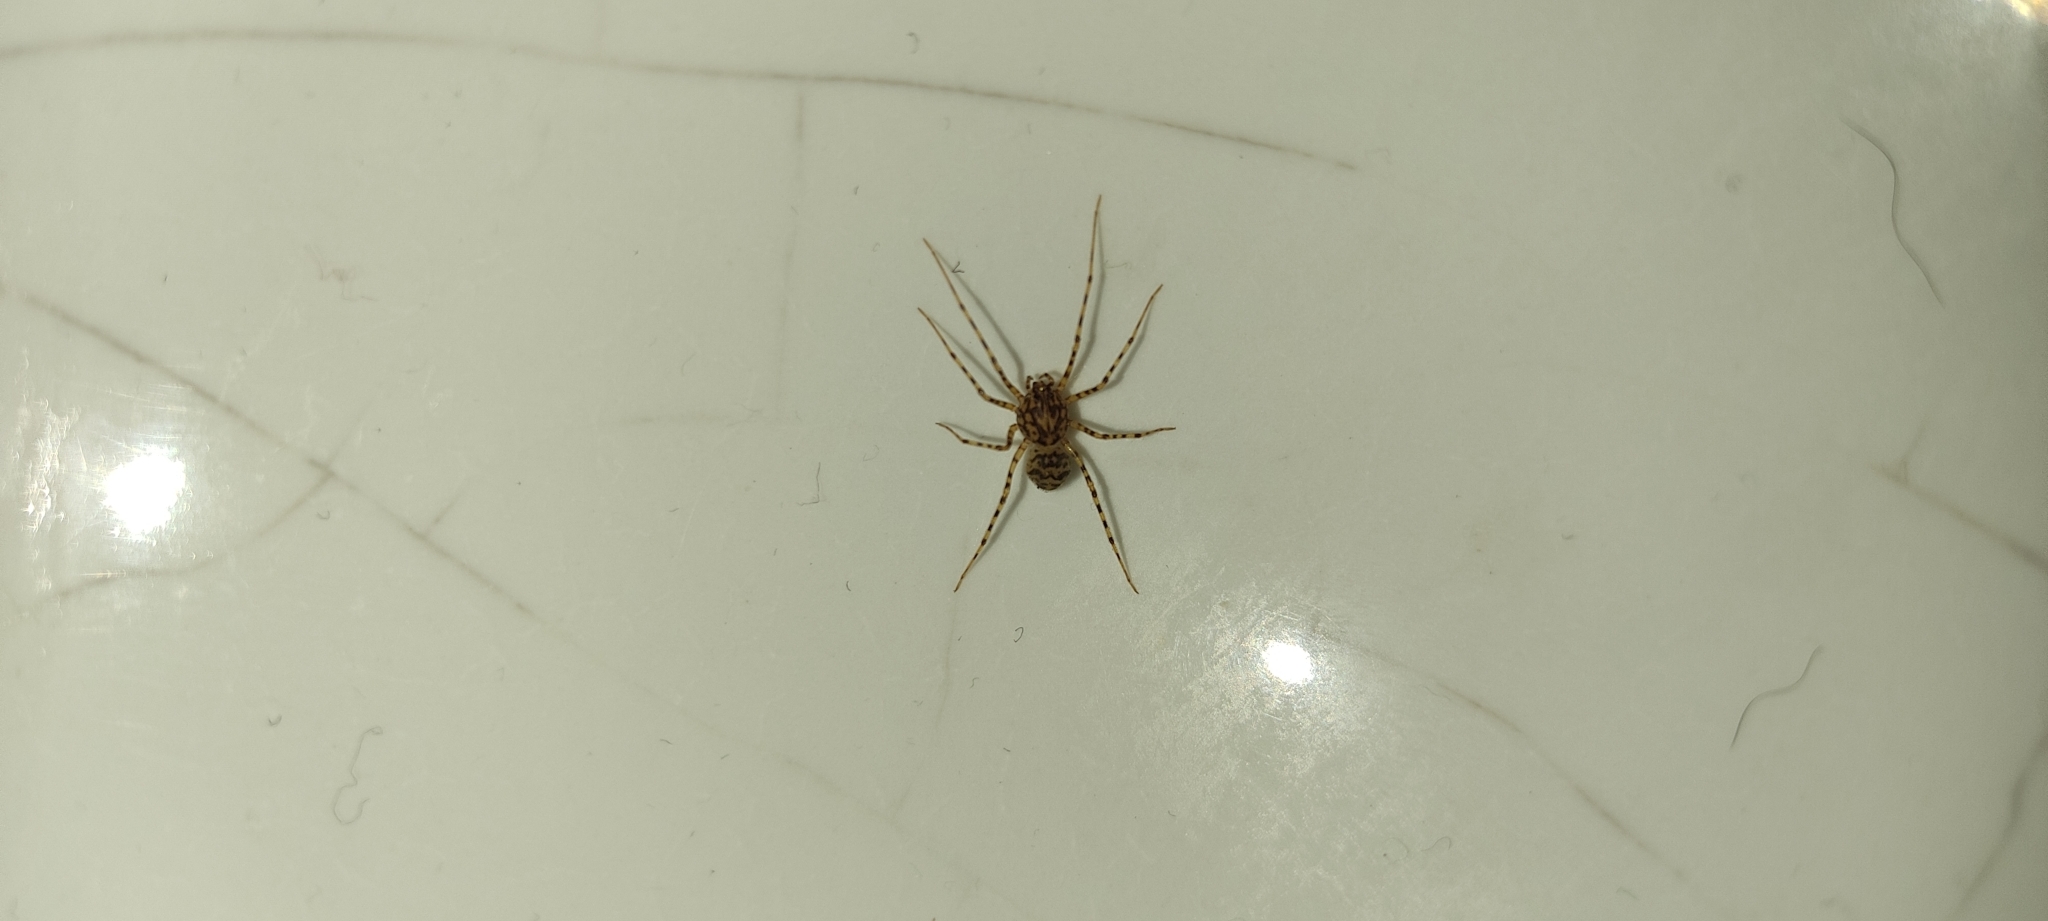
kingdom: Animalia
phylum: Arthropoda
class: Arachnida
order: Araneae
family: Scytodidae
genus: Scytodes
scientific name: Scytodes thoracica
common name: Spitting spider
